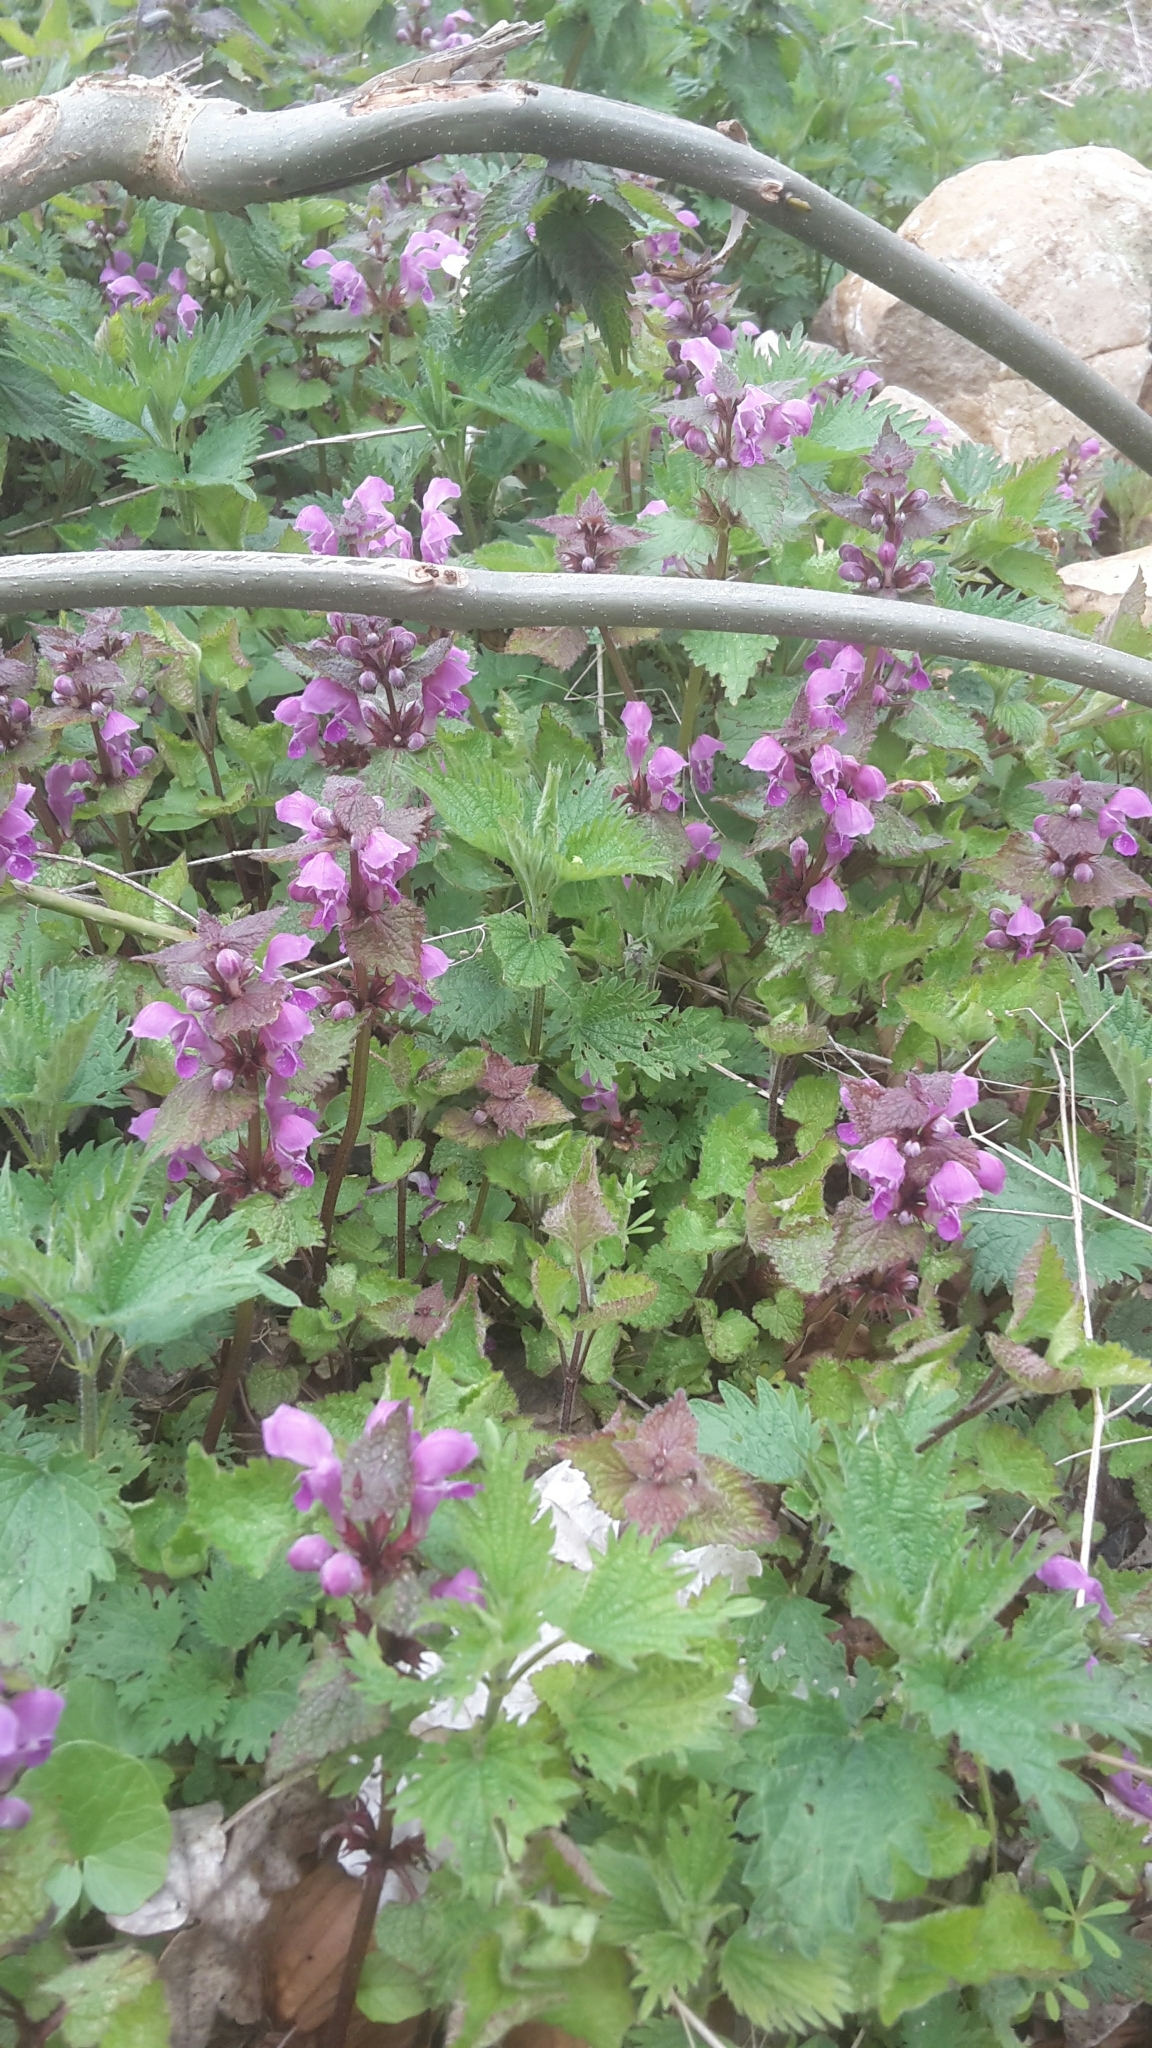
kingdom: Plantae
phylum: Tracheophyta
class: Magnoliopsida
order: Lamiales
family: Lamiaceae
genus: Lamium
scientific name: Lamium maculatum
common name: Spotted dead-nettle
